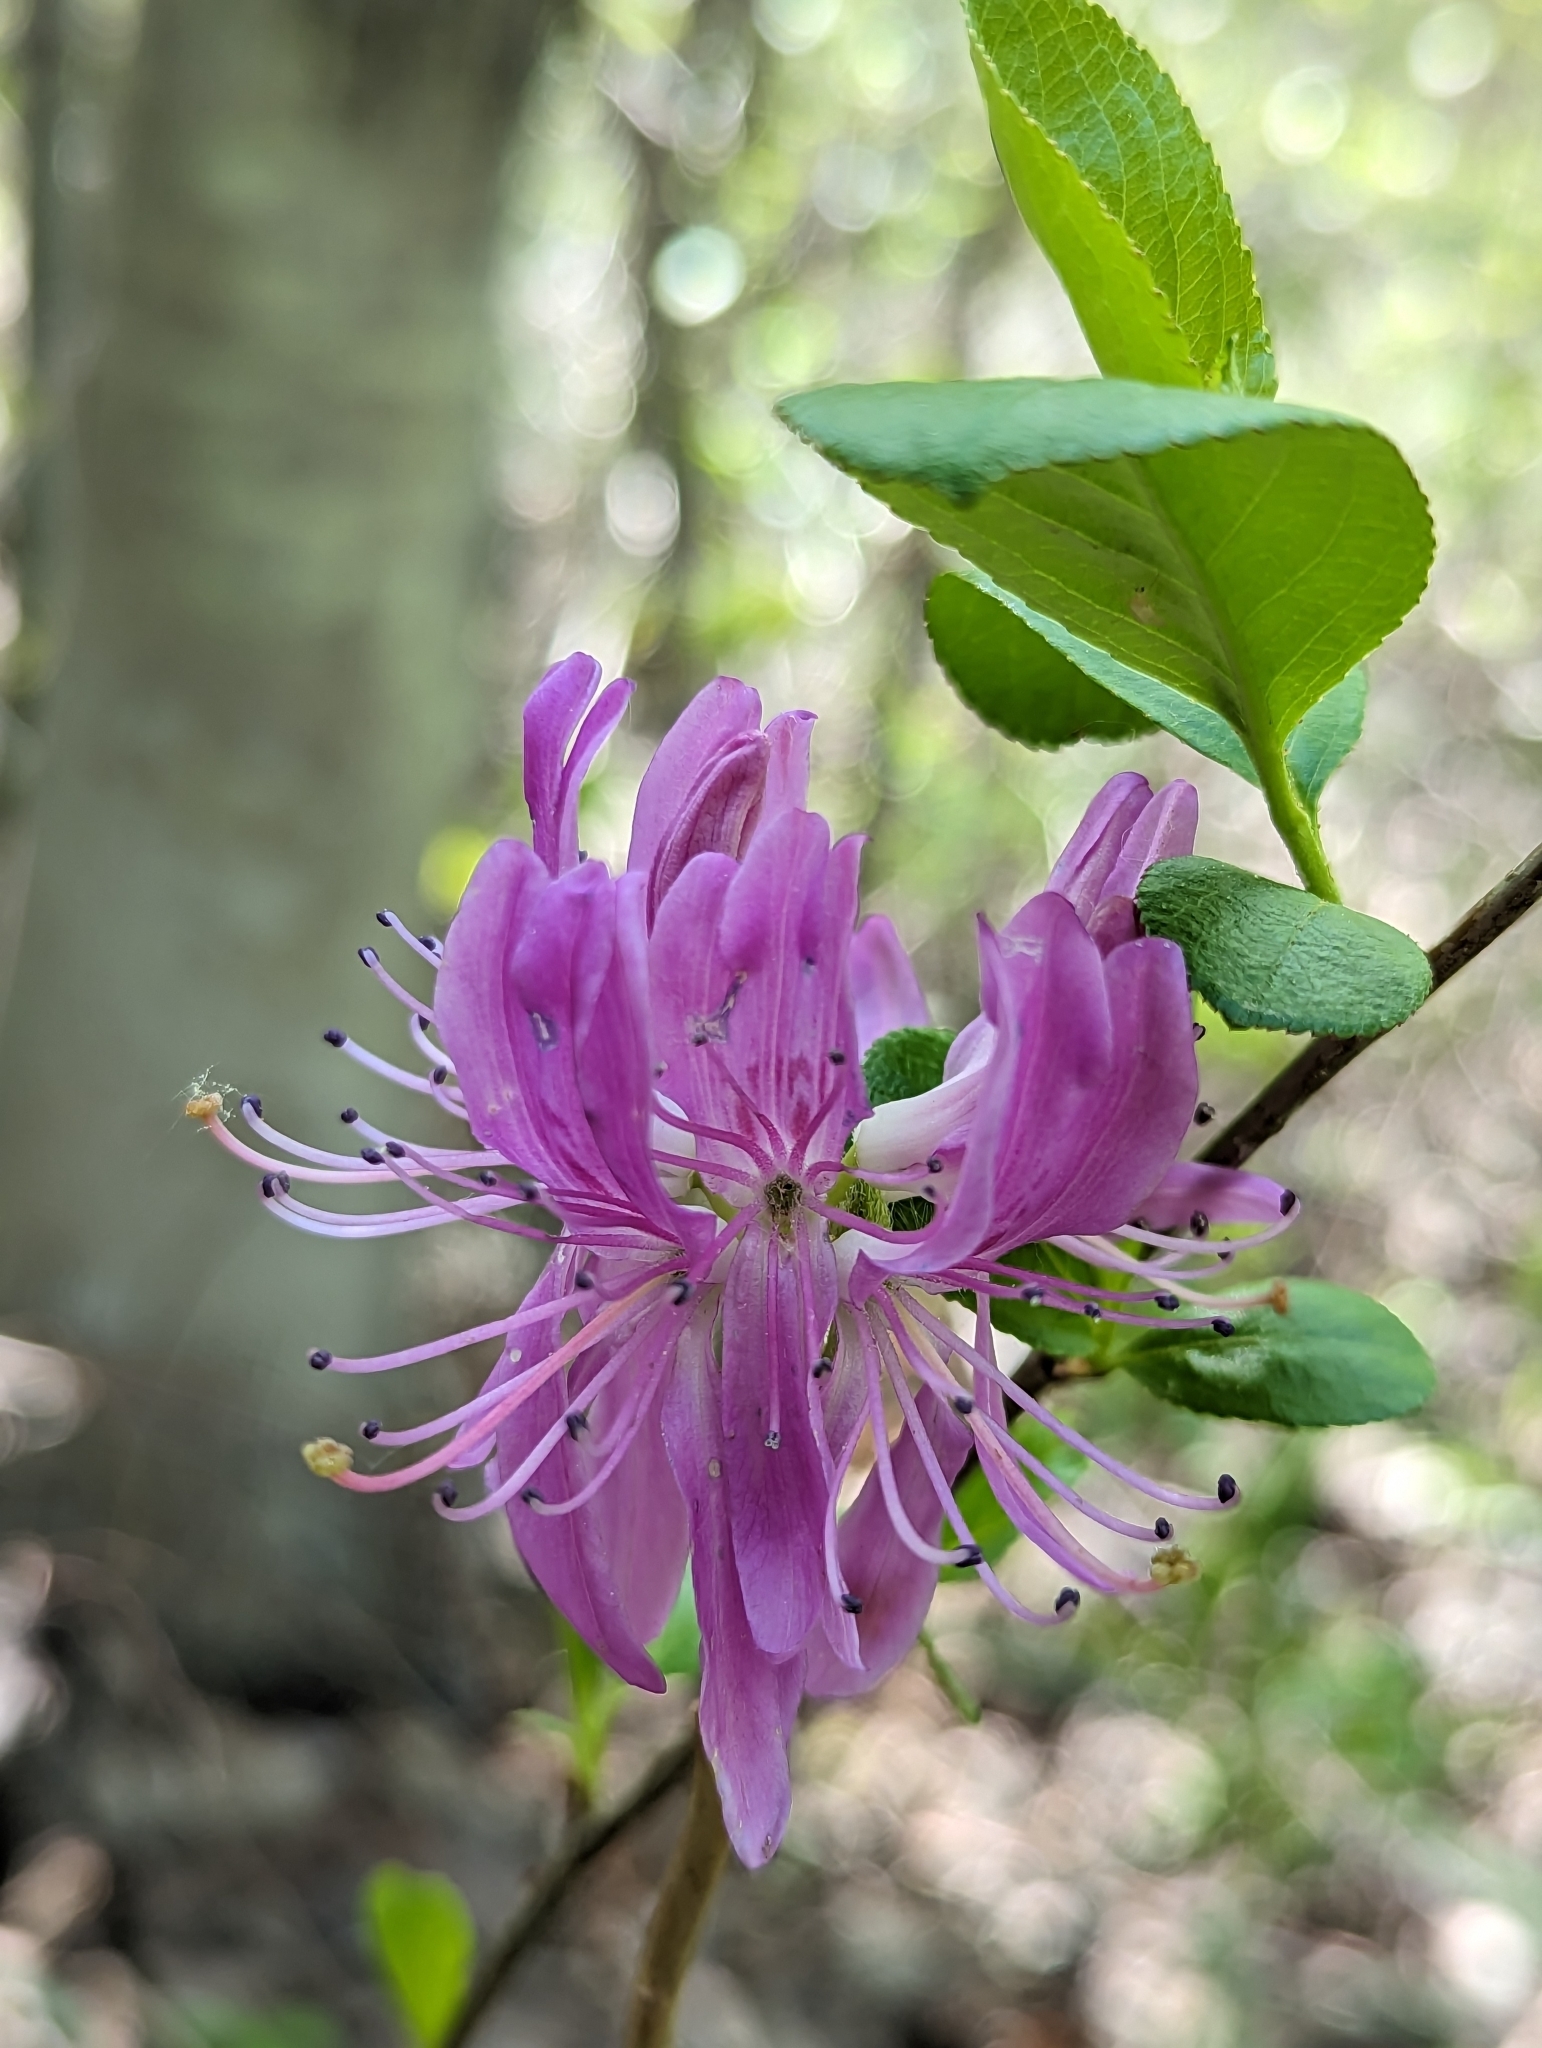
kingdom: Plantae
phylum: Tracheophyta
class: Magnoliopsida
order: Ericales
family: Ericaceae
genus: Rhododendron
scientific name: Rhododendron canadense
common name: Rhodora
